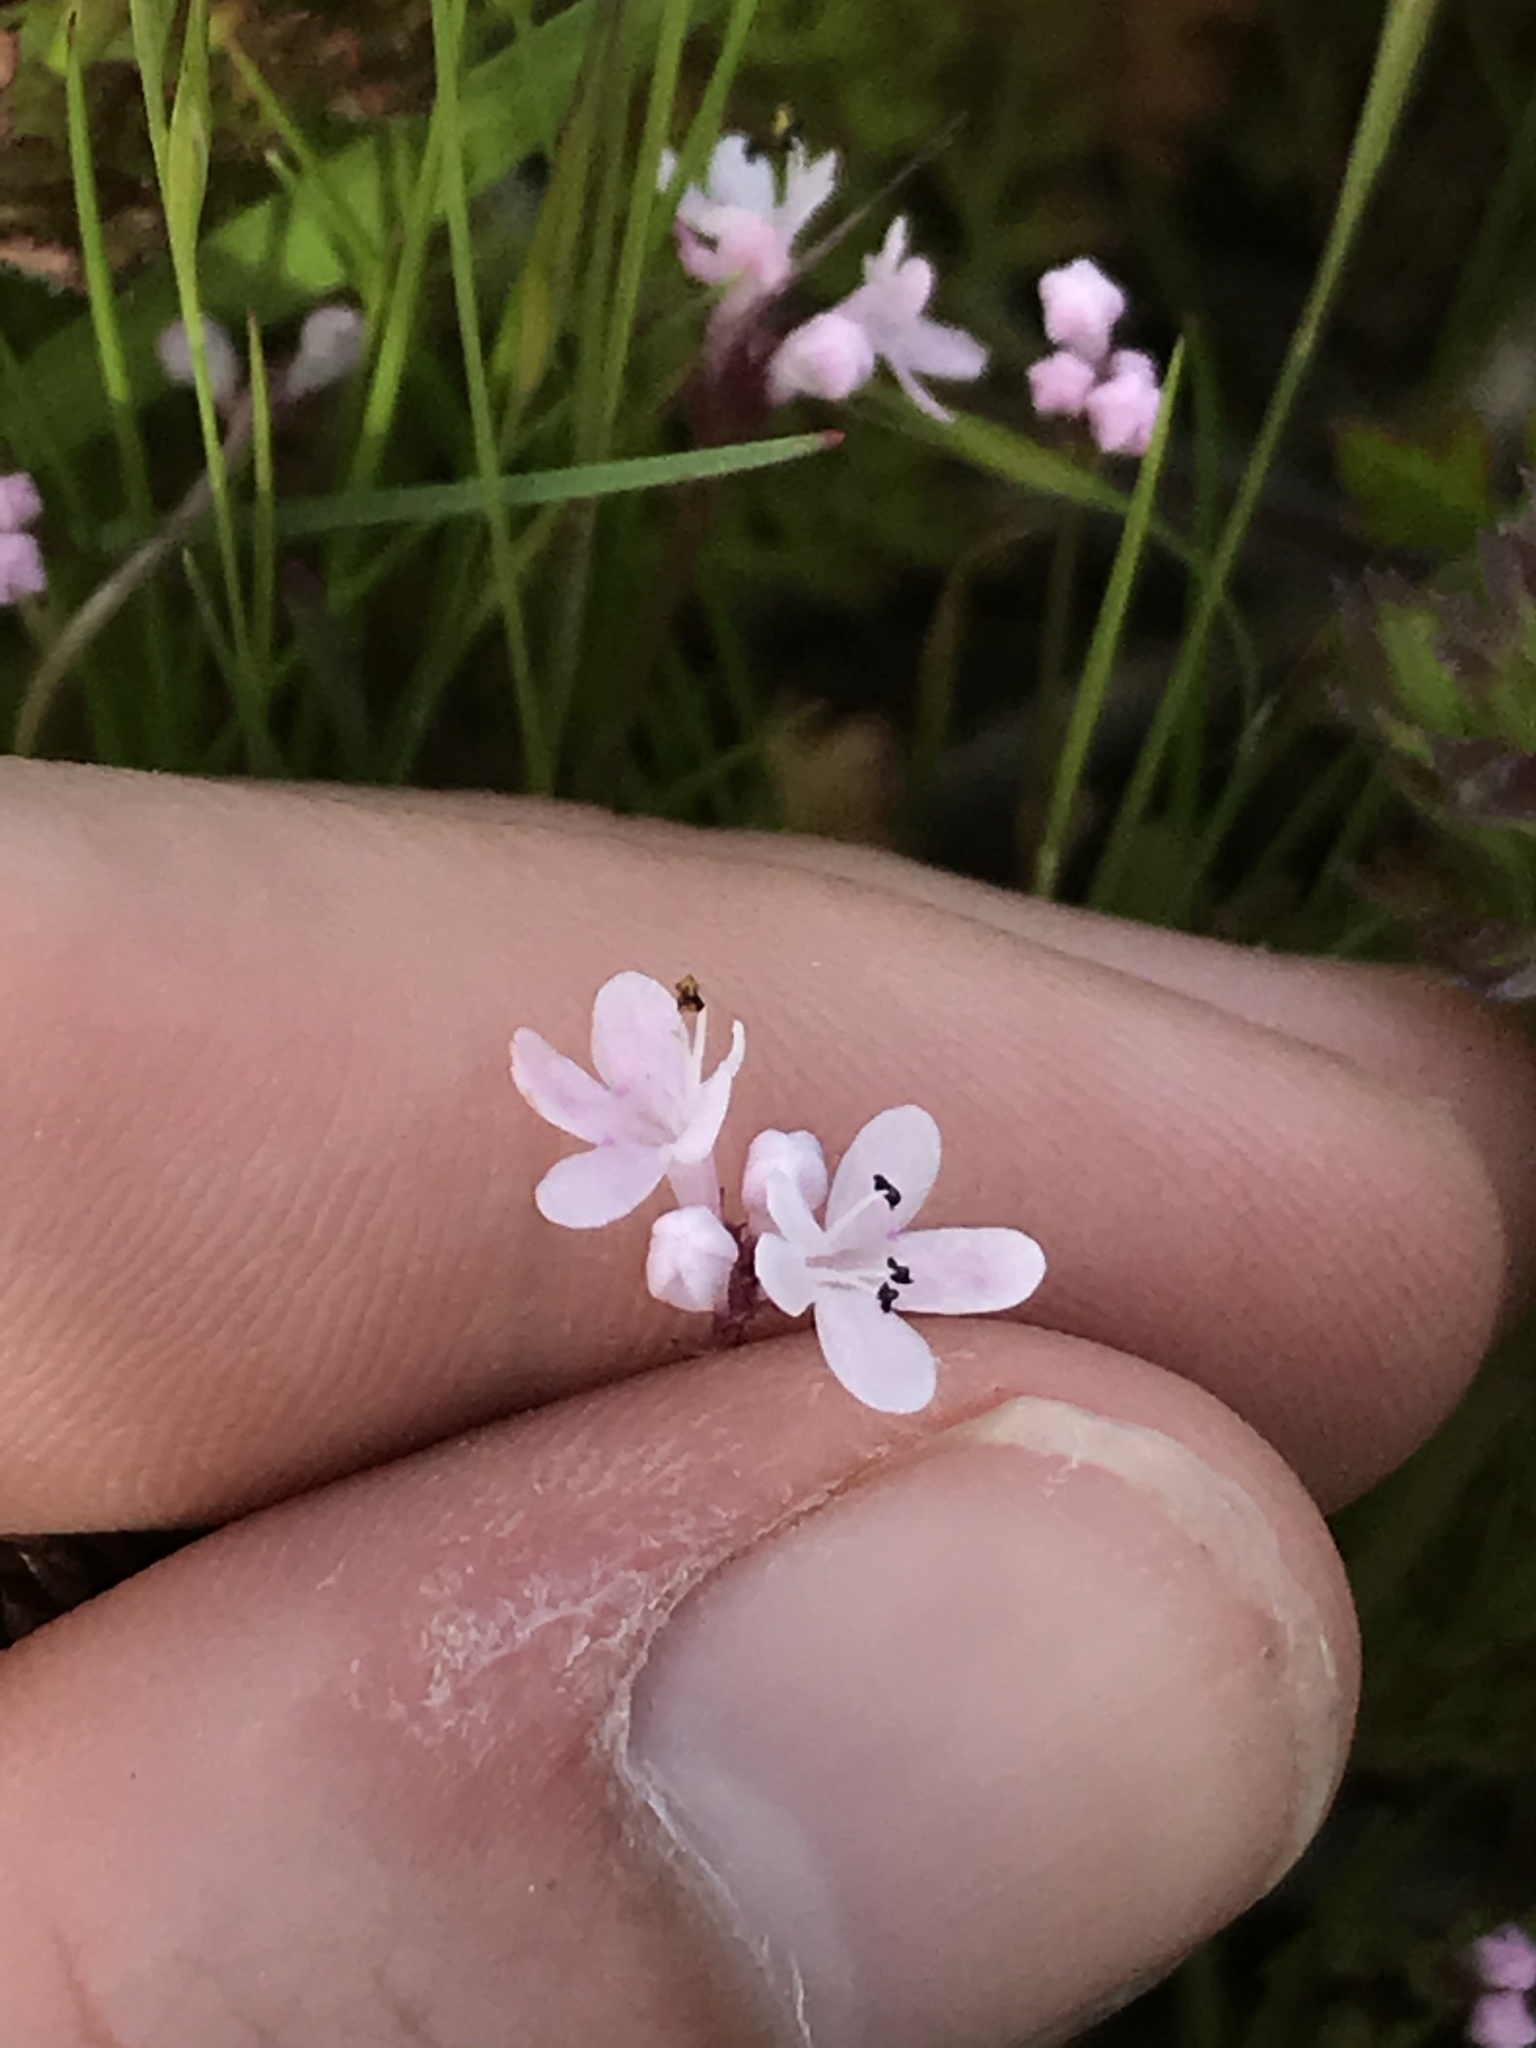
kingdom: Plantae
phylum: Tracheophyta
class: Magnoliopsida
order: Dipsacales
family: Caprifoliaceae
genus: Plectritis
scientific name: Plectritis brachystemon
